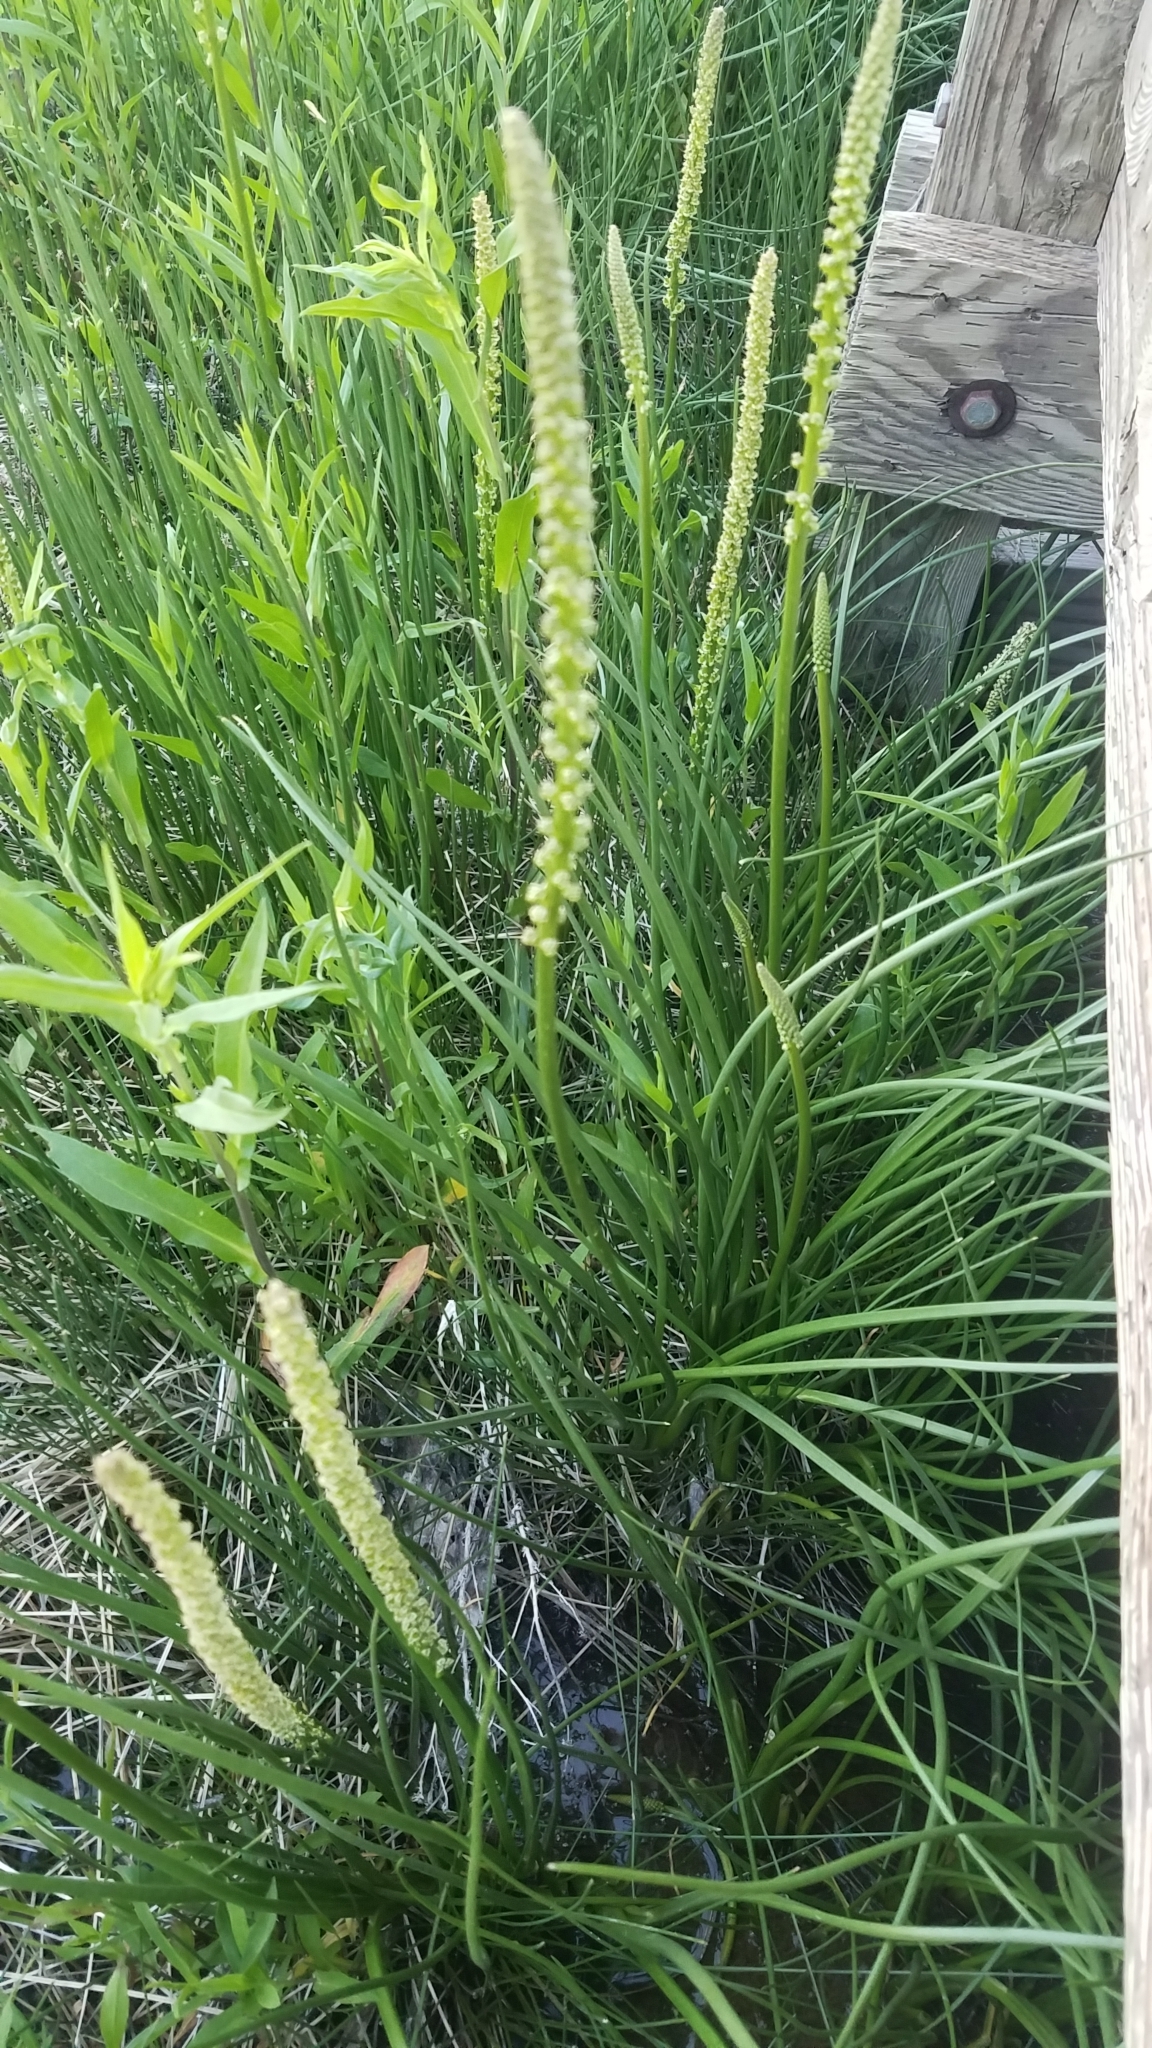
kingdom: Plantae
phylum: Tracheophyta
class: Liliopsida
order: Alismatales
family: Juncaginaceae
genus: Triglochin
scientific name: Triglochin maritima
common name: Sea arrowgrass
